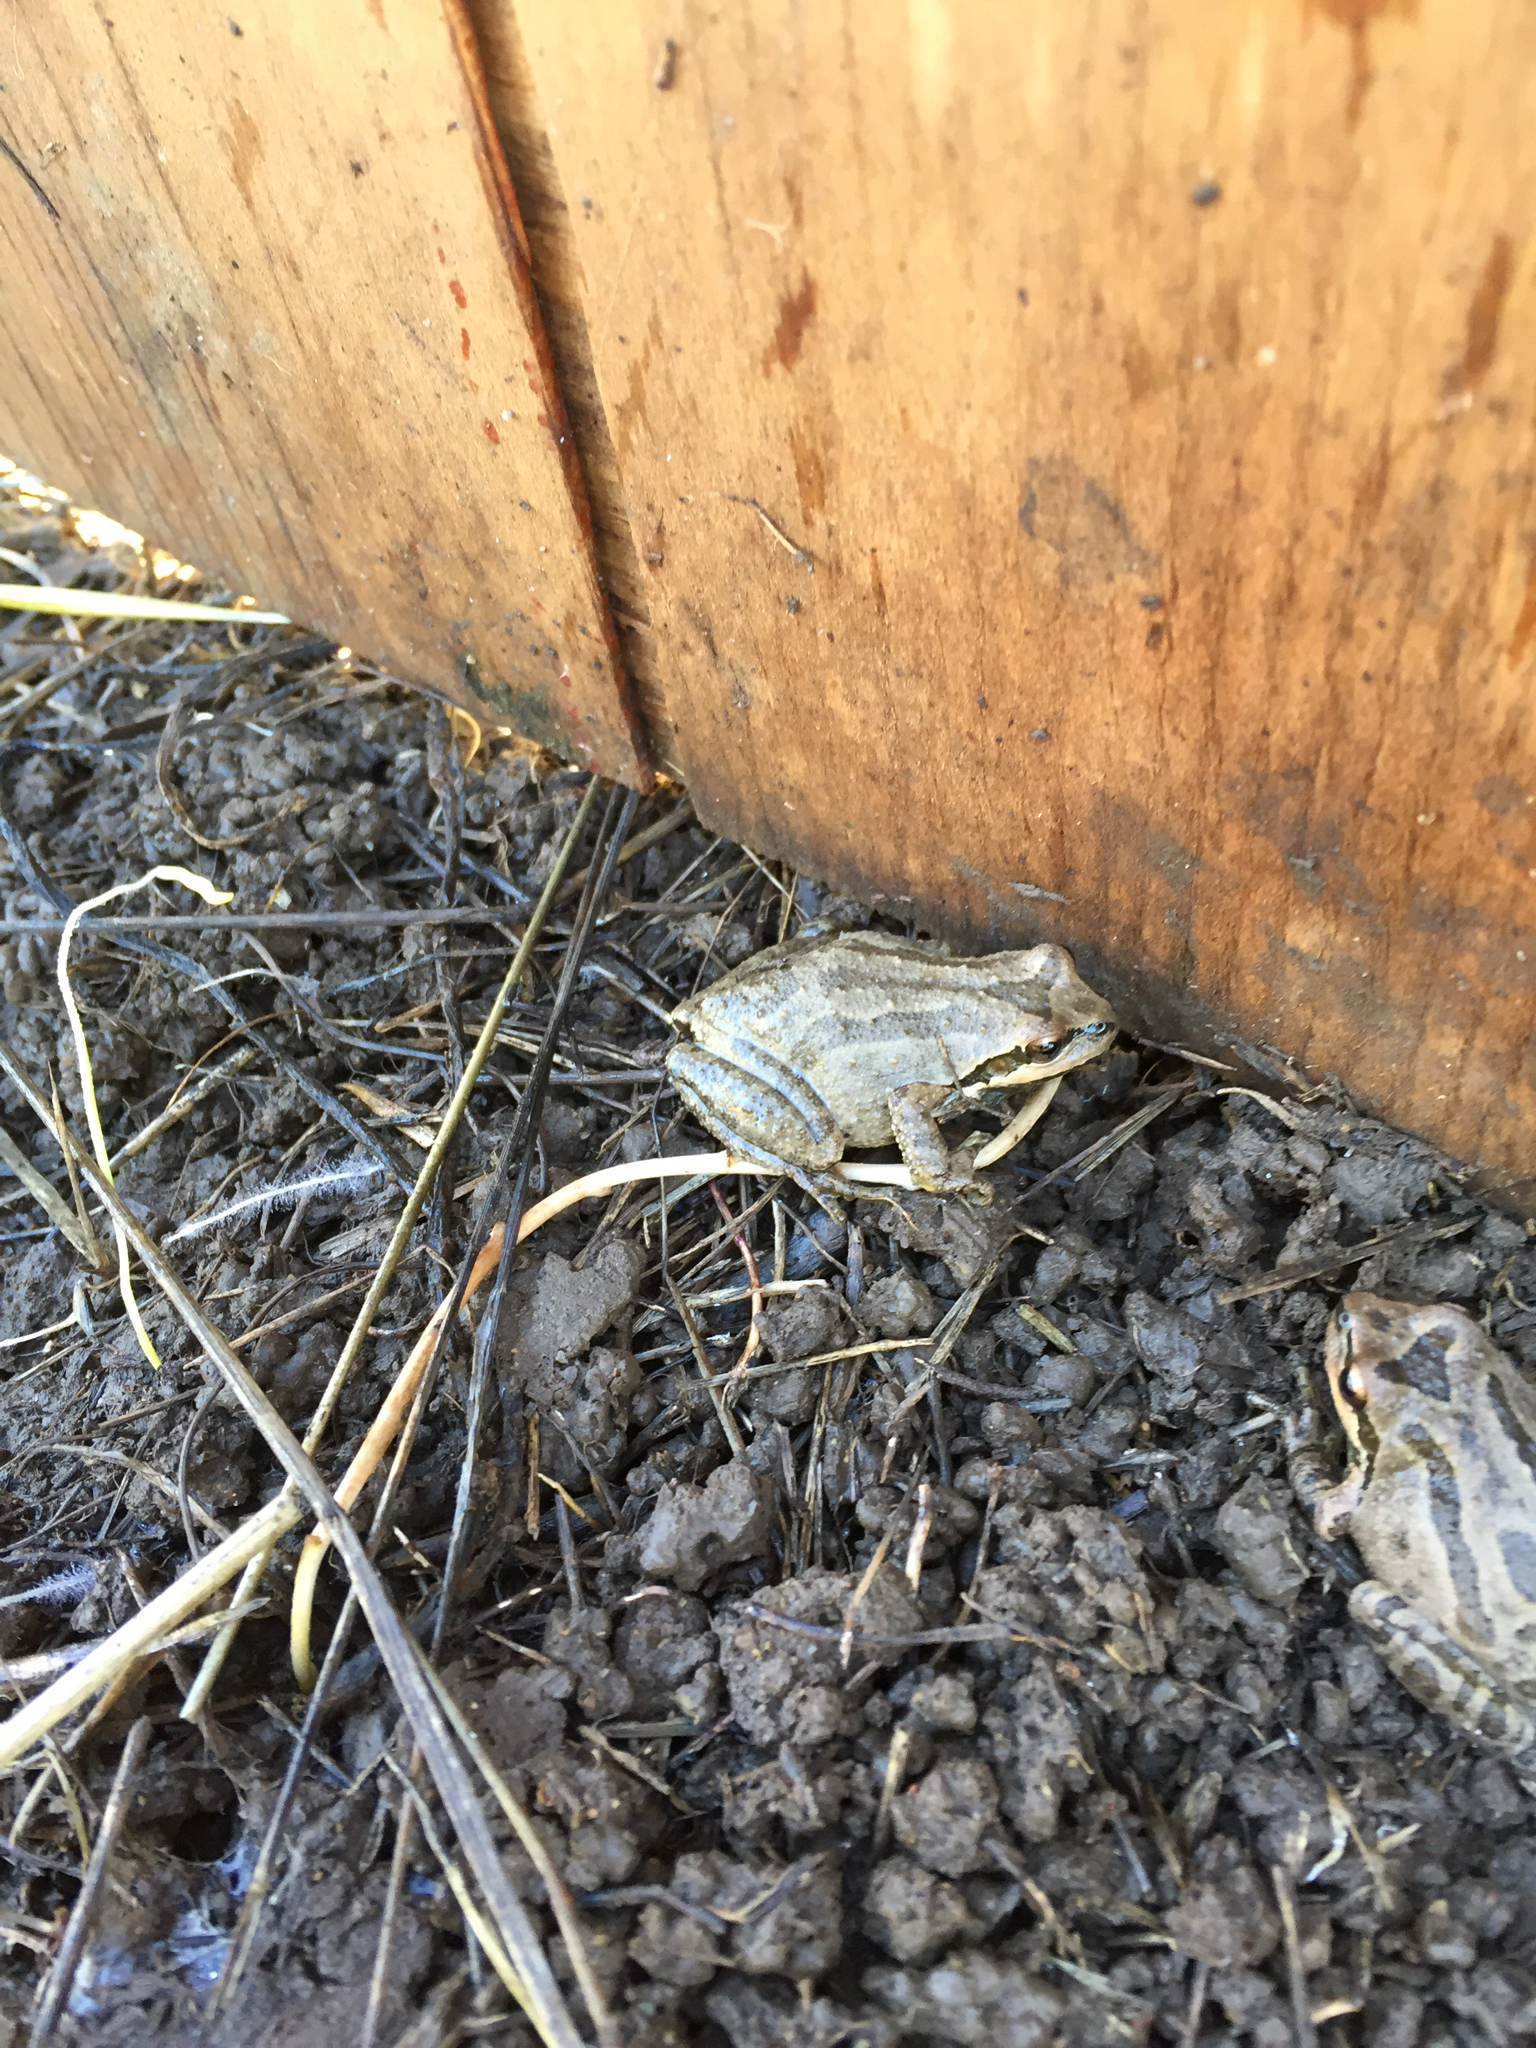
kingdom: Animalia
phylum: Chordata
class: Amphibia
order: Anura
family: Hylidae
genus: Pseudacris
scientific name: Pseudacris regilla
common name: Pacific chorus frog
